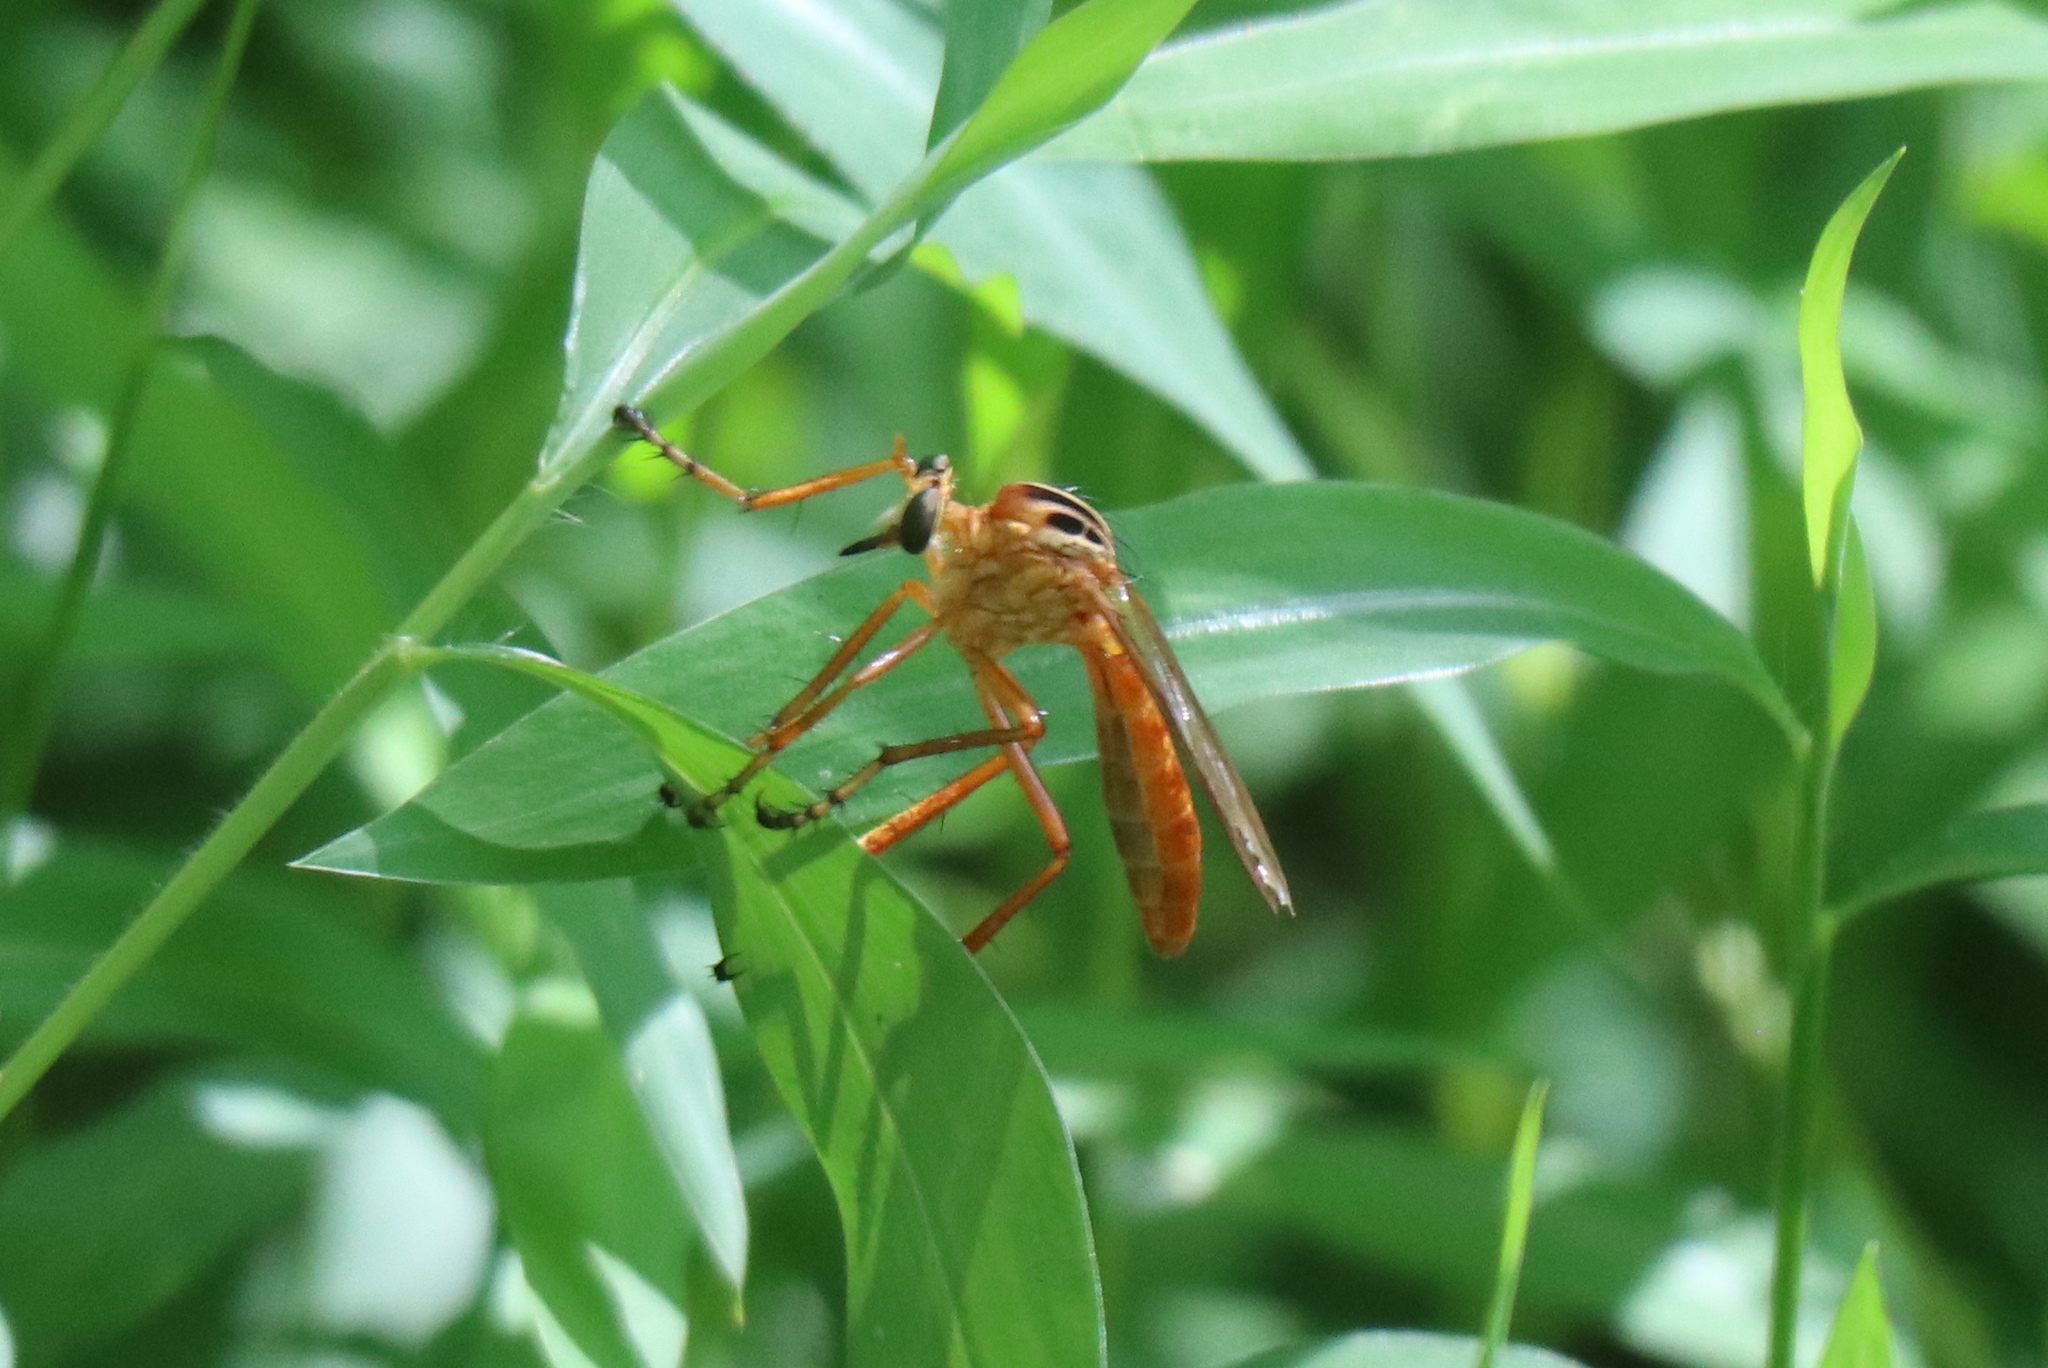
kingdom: Animalia
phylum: Arthropoda
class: Insecta
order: Diptera
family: Asilidae
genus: Diogmites
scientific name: Diogmites neoternatus
